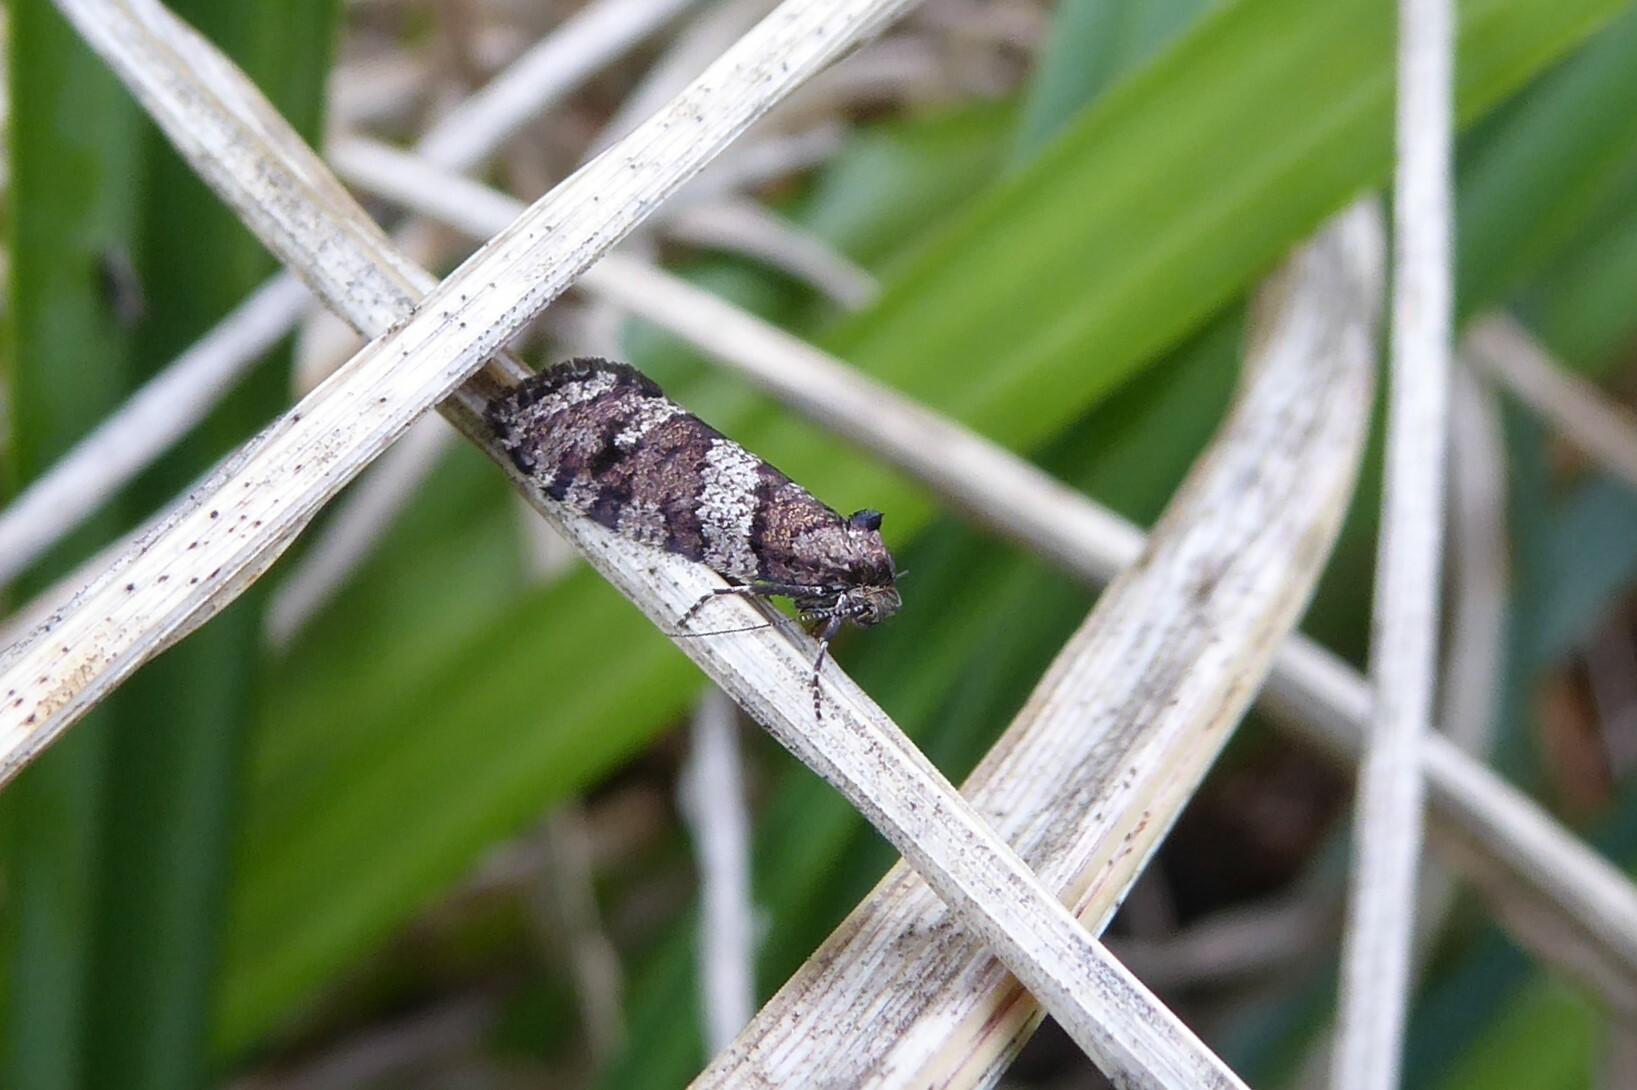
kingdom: Animalia
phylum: Arthropoda
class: Insecta
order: Lepidoptera
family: Psychidae
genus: Lepidoscia
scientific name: Lepidoscia heliochares
